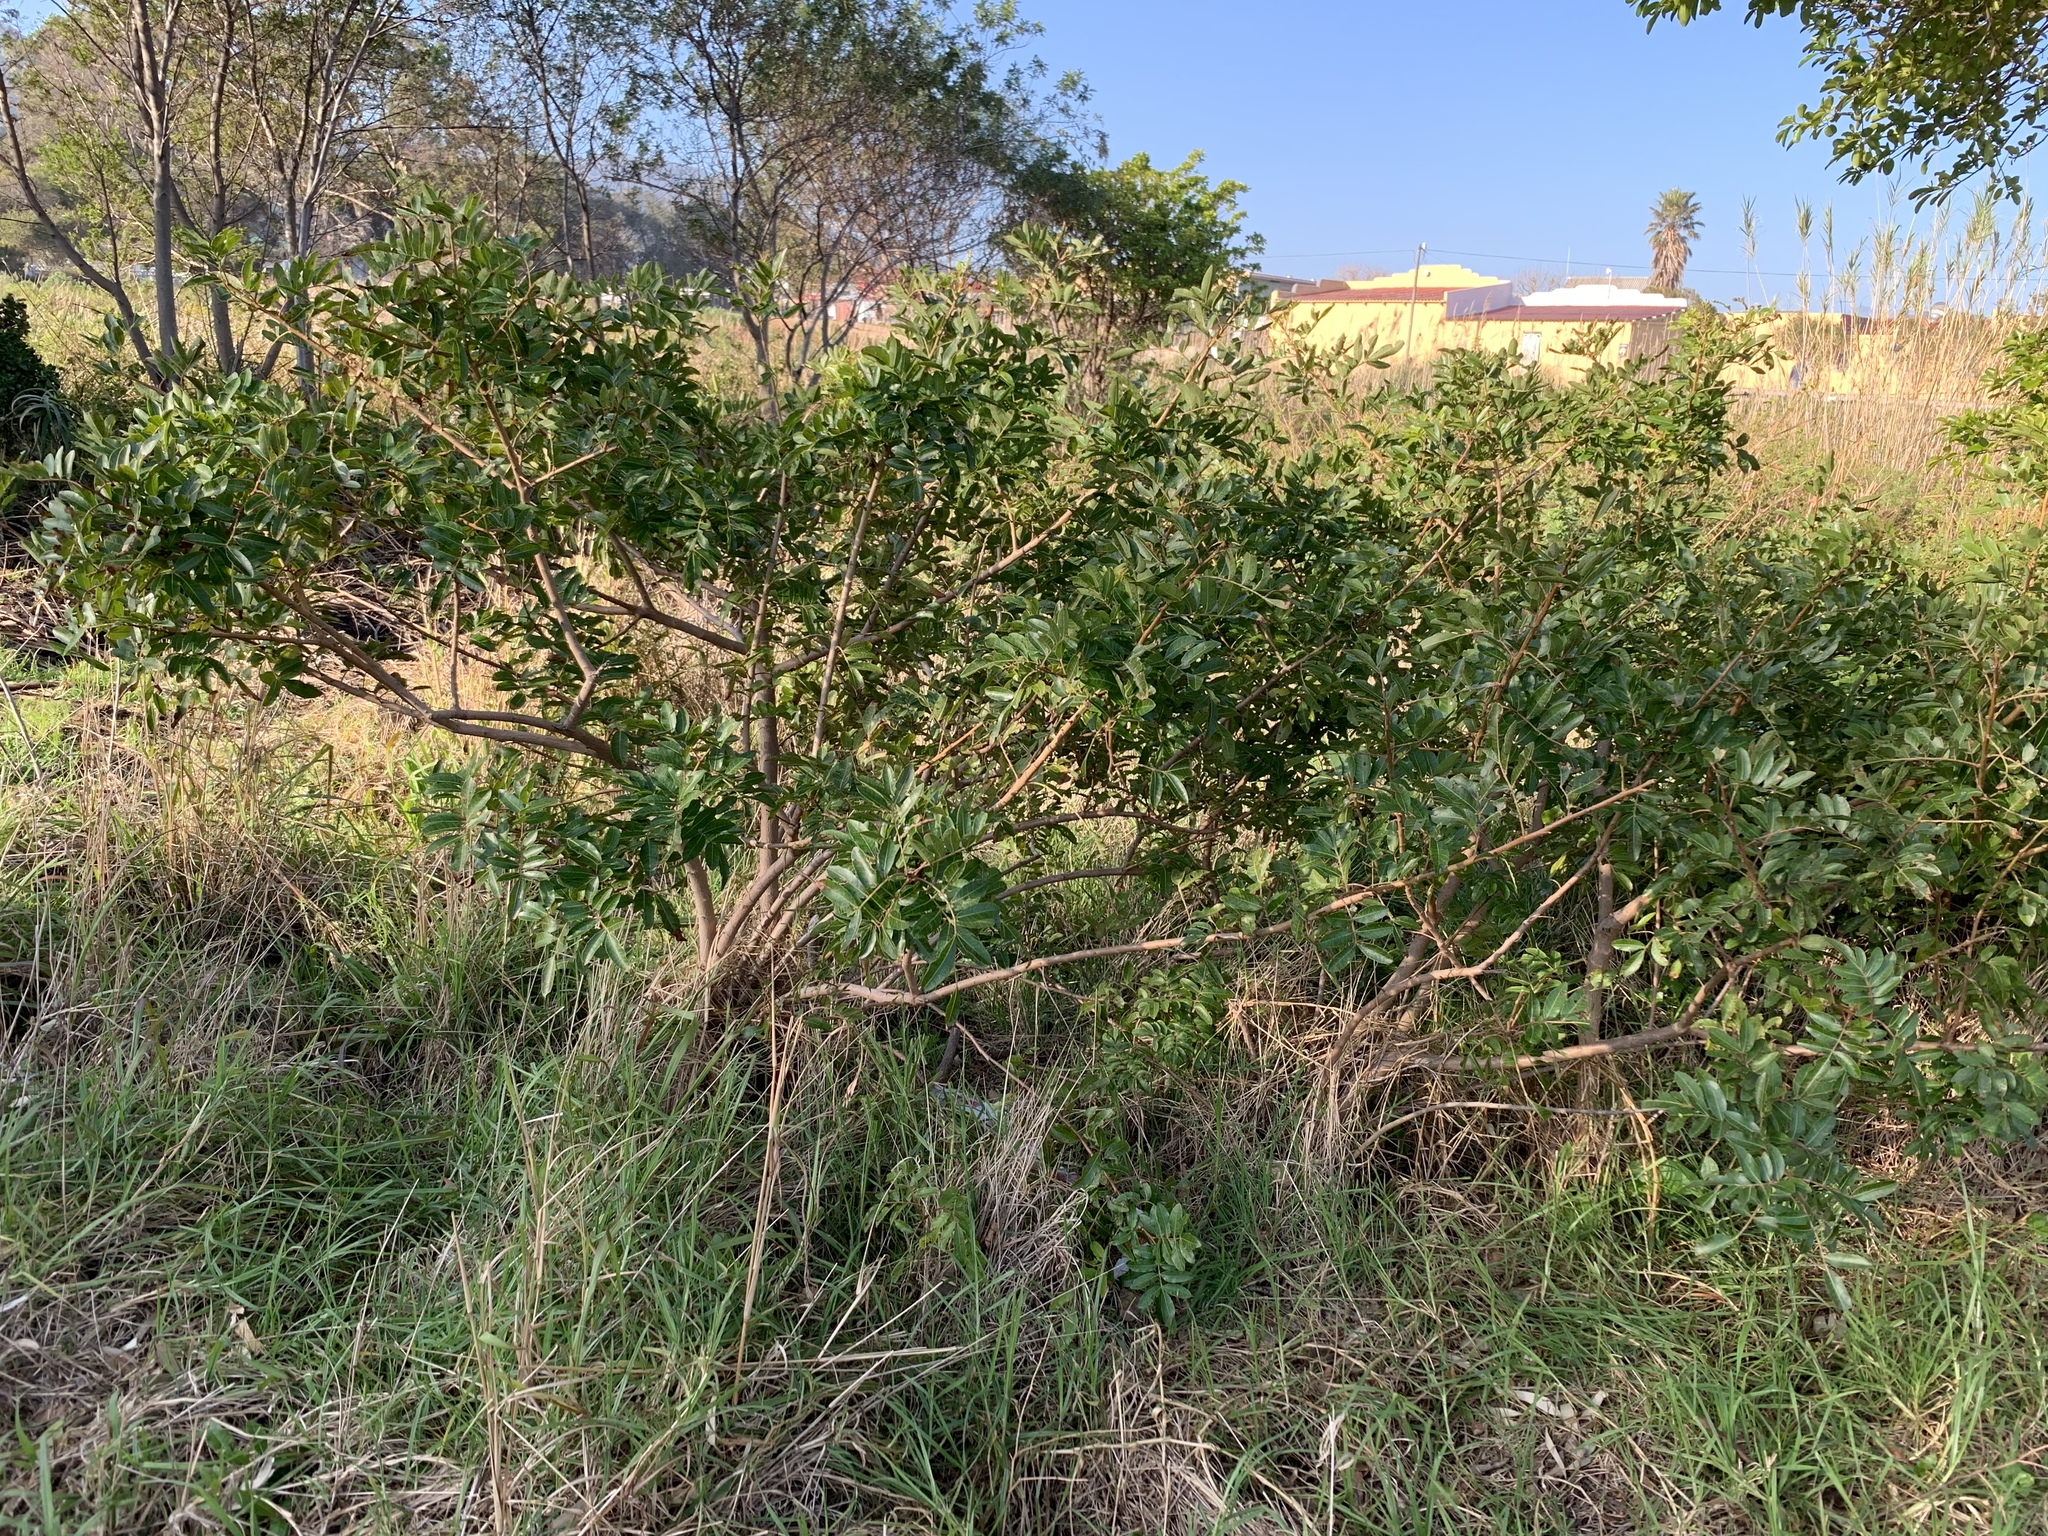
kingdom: Plantae
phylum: Tracheophyta
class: Magnoliopsida
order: Sapindales
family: Anacardiaceae
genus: Schinus
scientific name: Schinus terebinthifolia
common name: Brazilian peppertree
